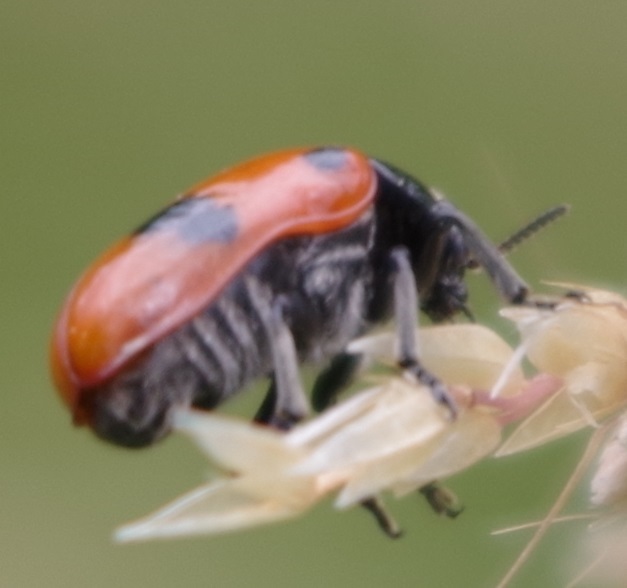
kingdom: Animalia
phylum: Arthropoda
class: Insecta
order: Coleoptera
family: Chrysomelidae
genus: Clytra
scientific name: Clytra laeviuscula
